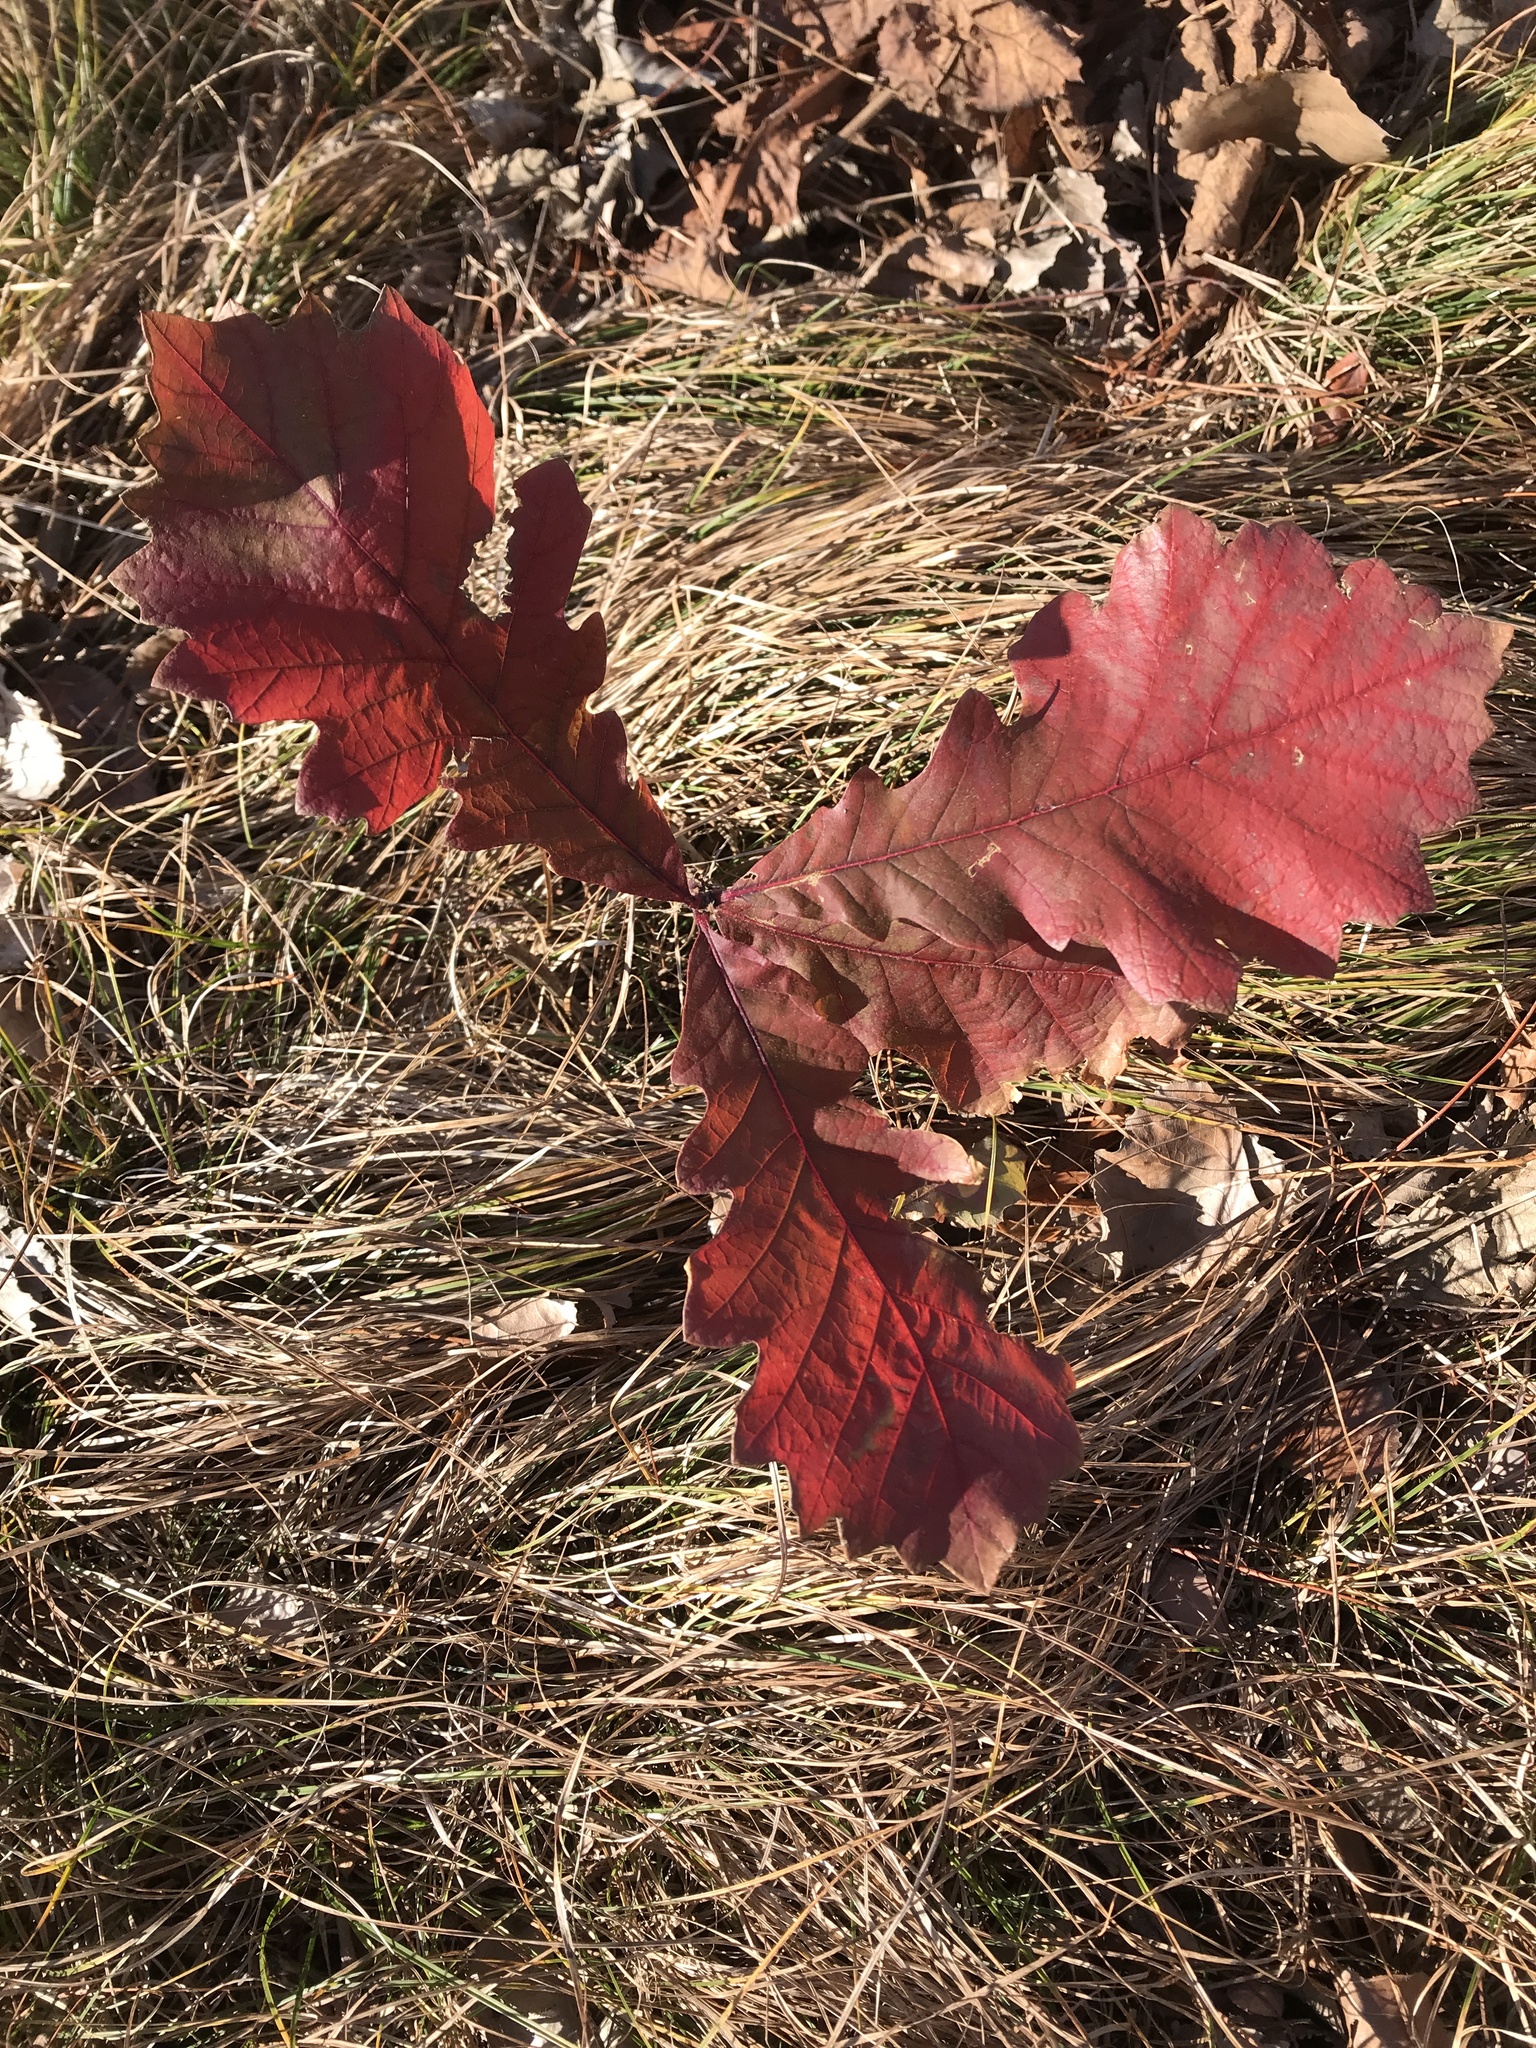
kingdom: Plantae
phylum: Tracheophyta
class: Magnoliopsida
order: Fagales
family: Fagaceae
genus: Quercus
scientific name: Quercus macrocarpa
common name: Bur oak
